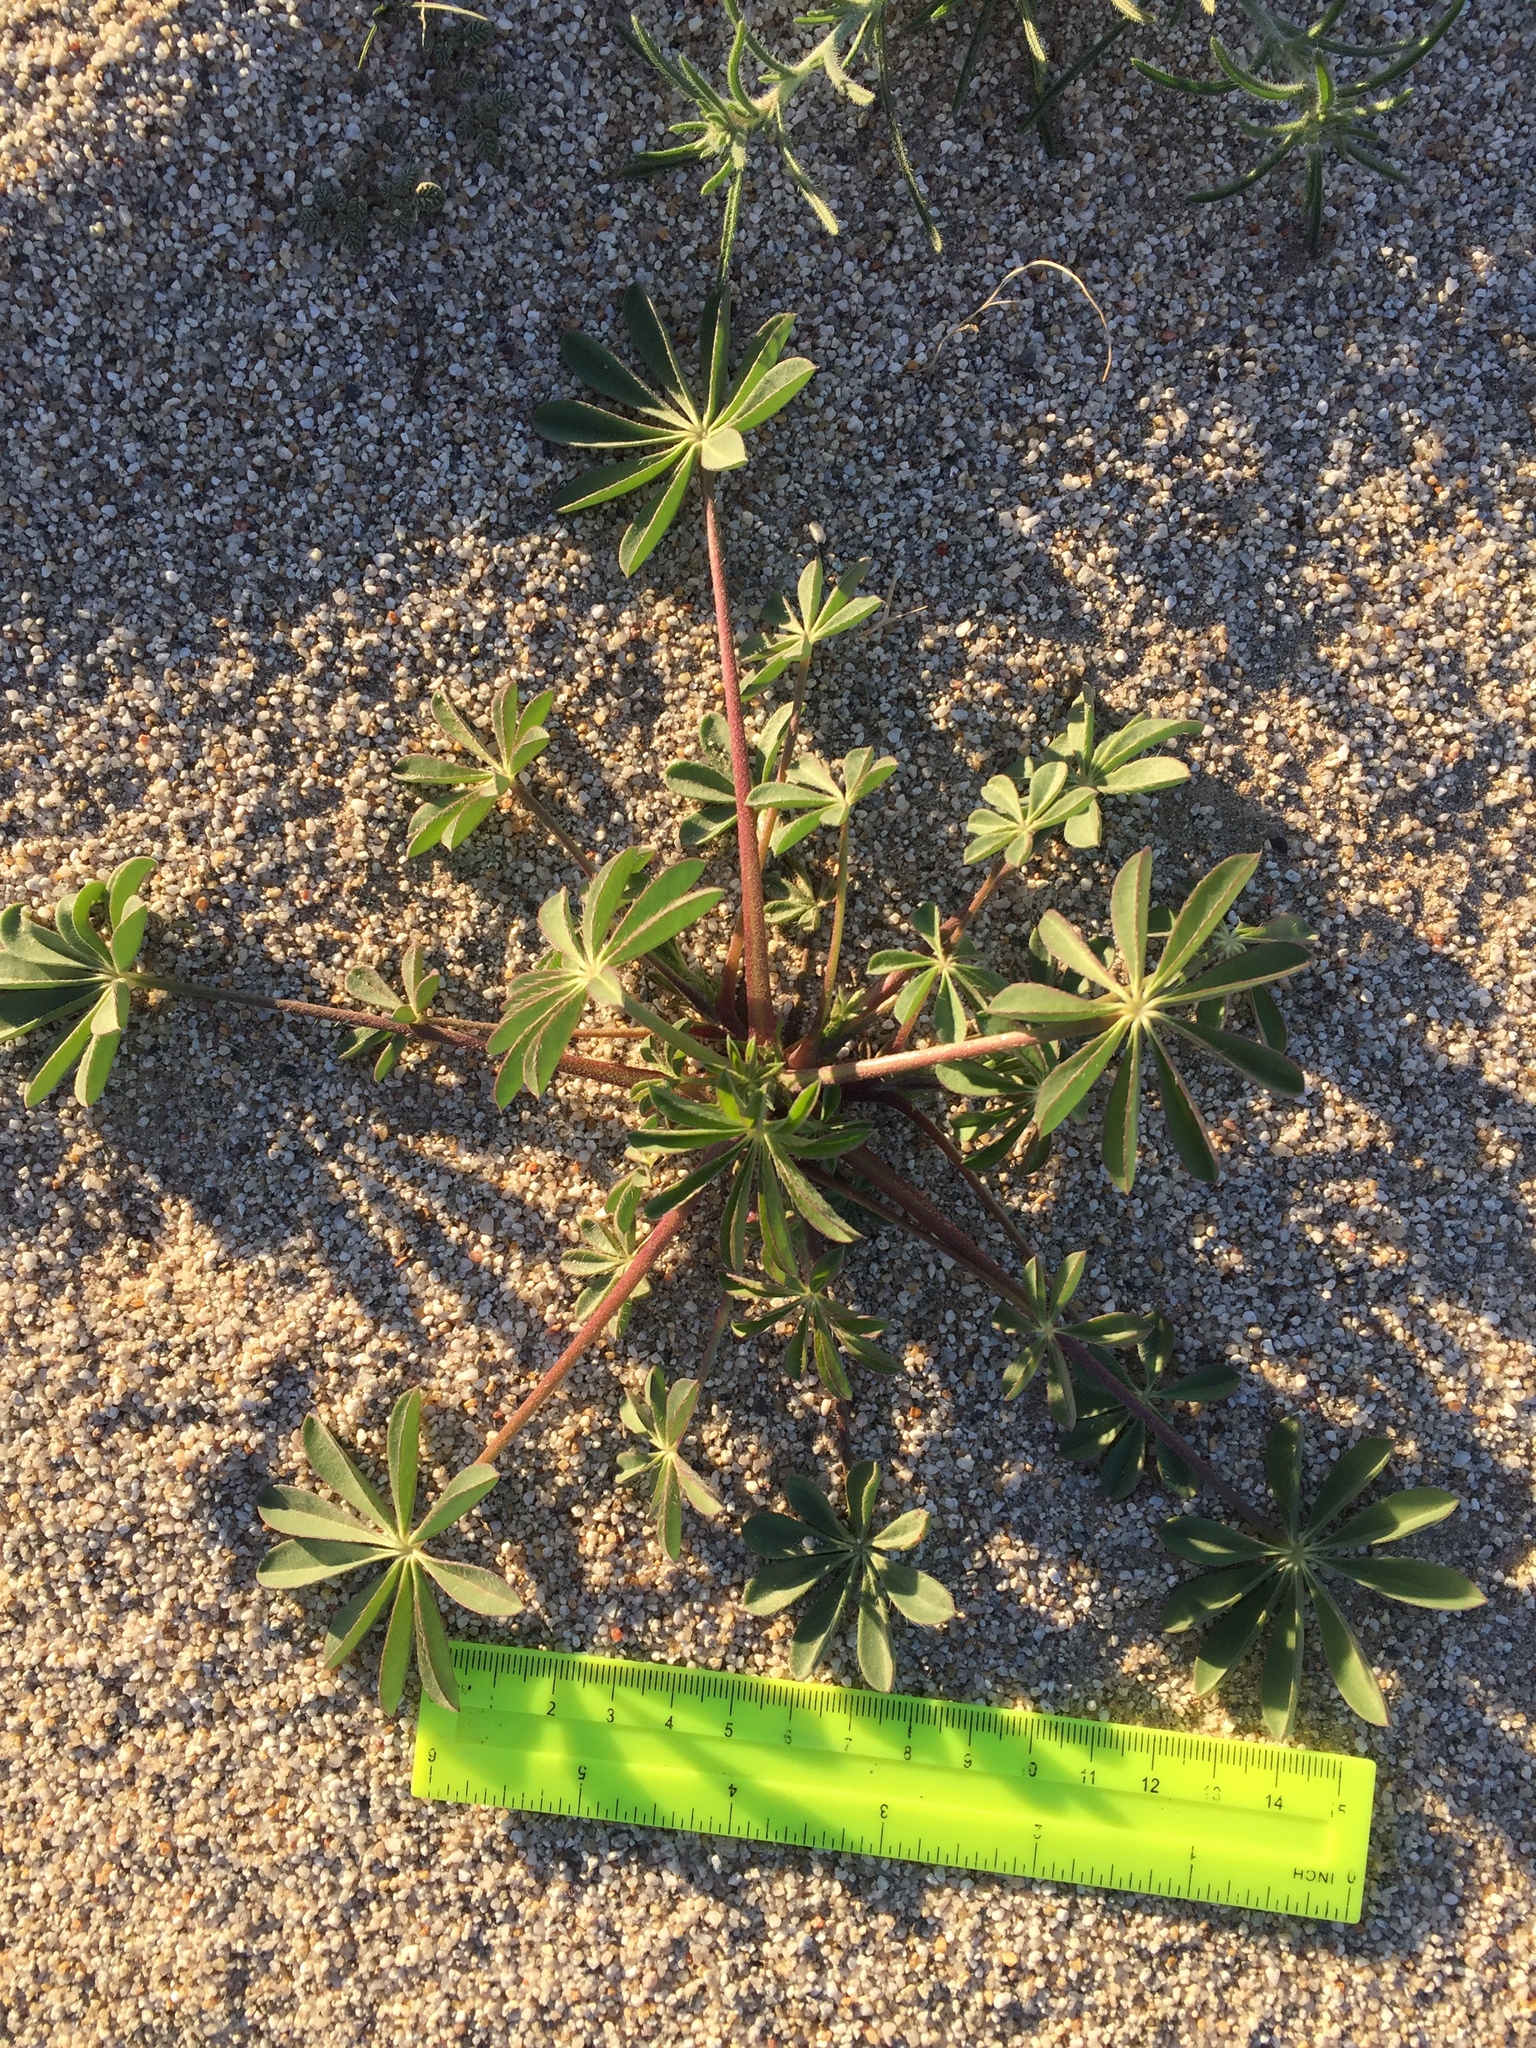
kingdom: Plantae
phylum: Tracheophyta
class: Magnoliopsida
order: Fabales
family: Fabaceae
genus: Lupinus
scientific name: Lupinus arizonicus
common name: Arizona lupine
